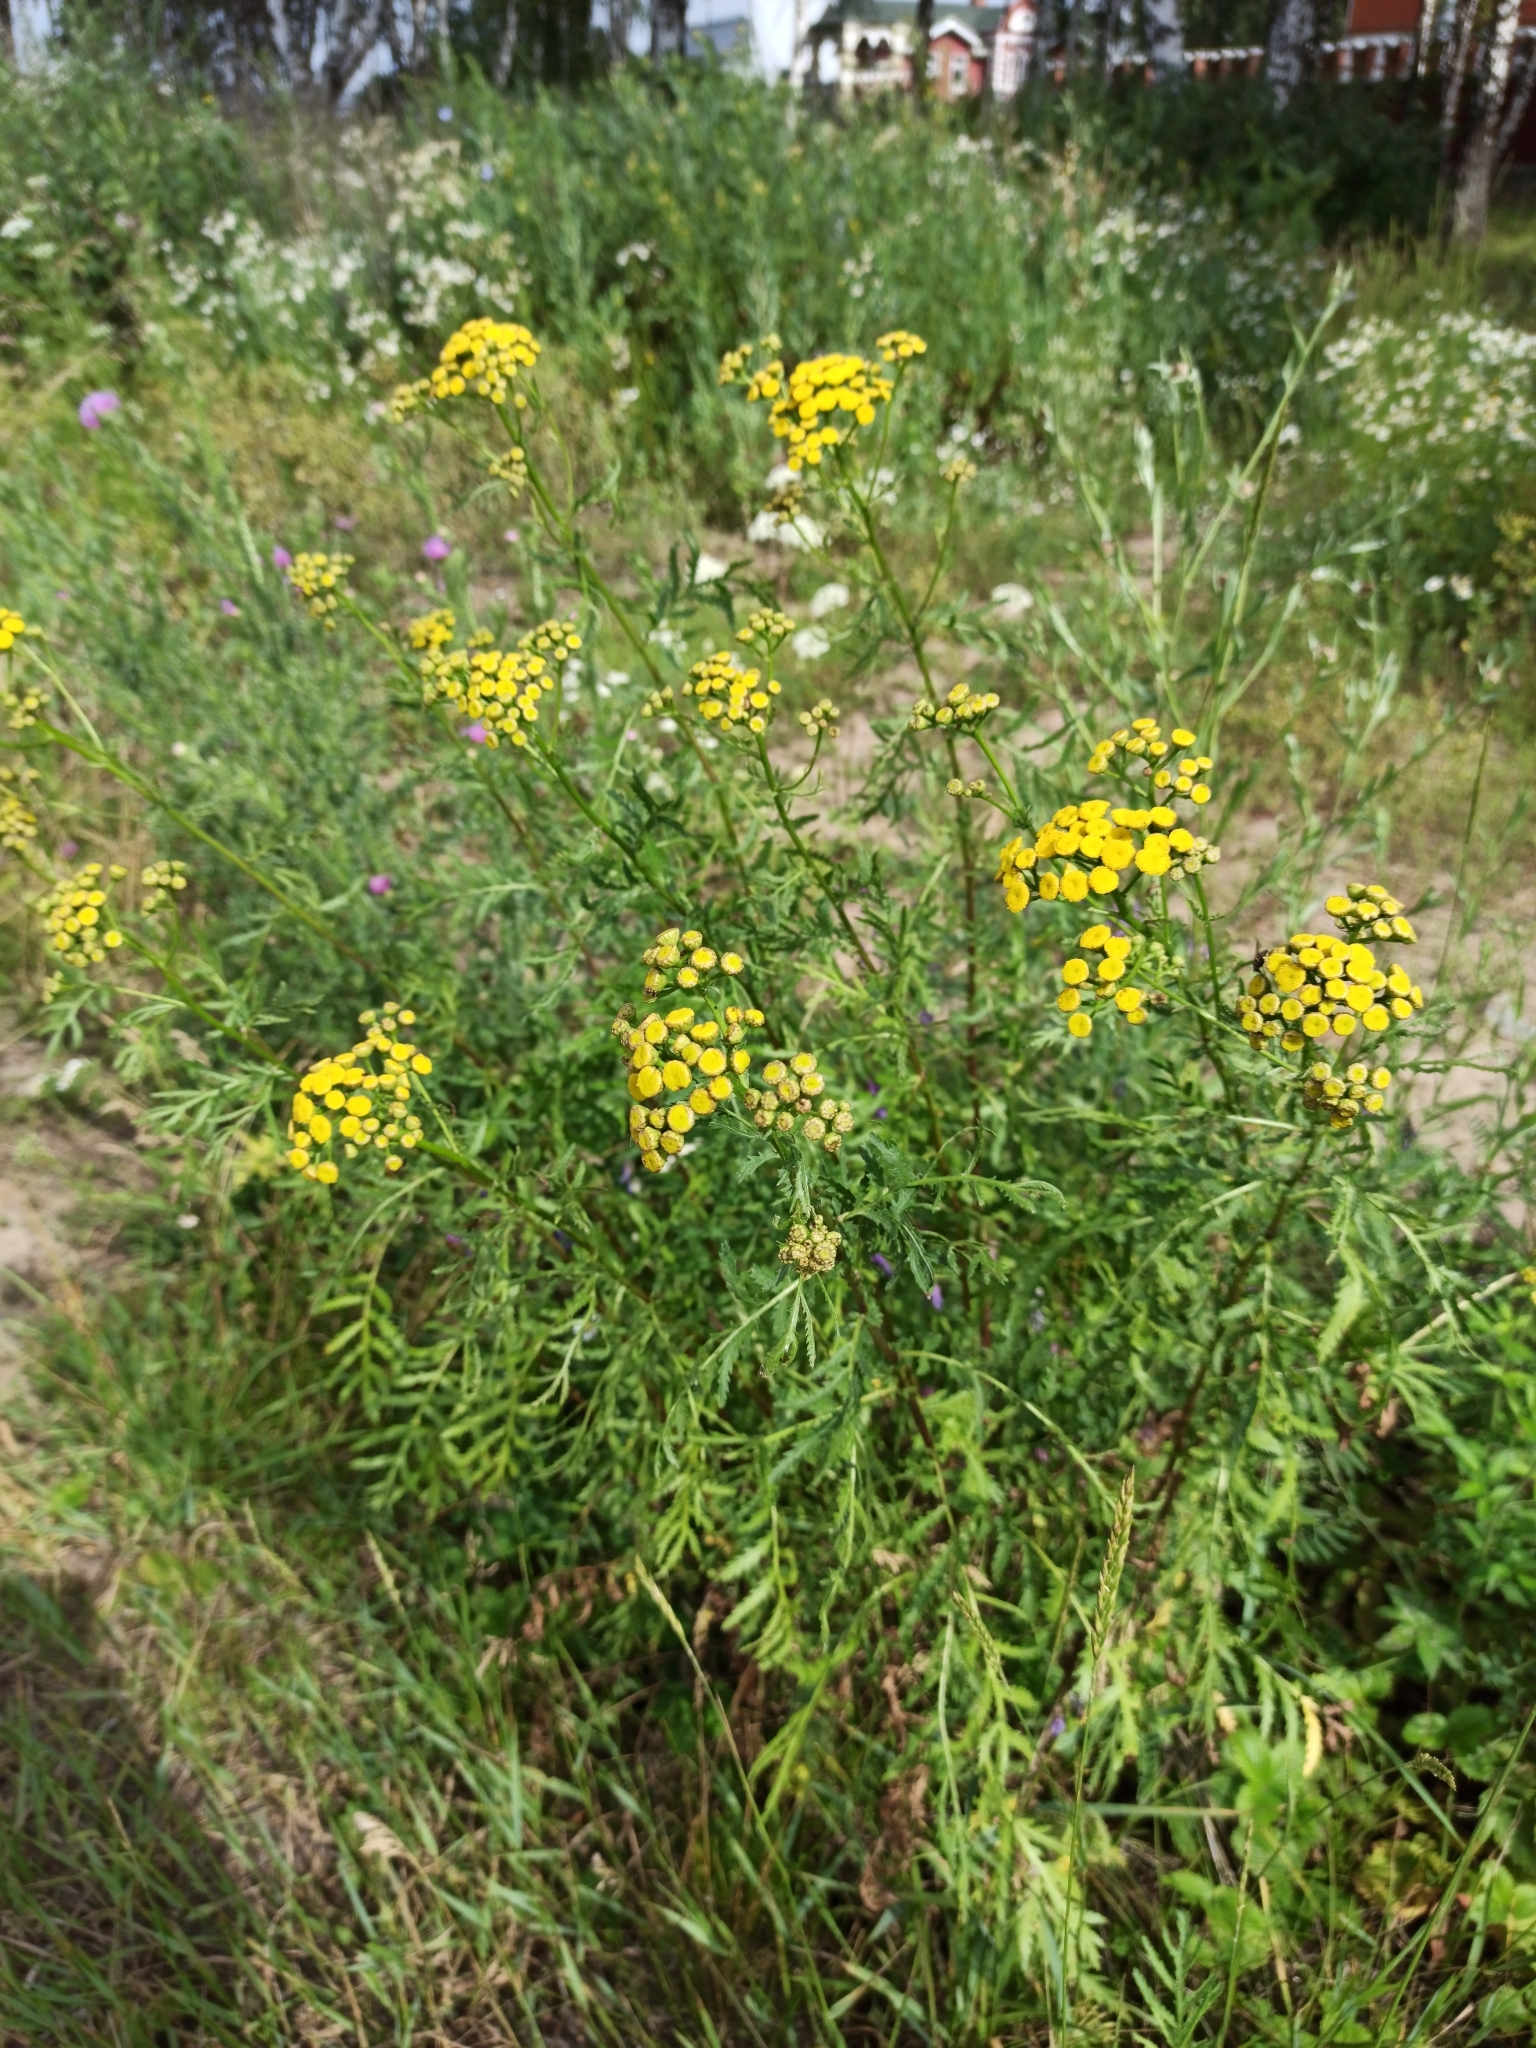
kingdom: Plantae
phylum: Tracheophyta
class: Magnoliopsida
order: Asterales
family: Asteraceae
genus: Tanacetum
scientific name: Tanacetum vulgare
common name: Common tansy
